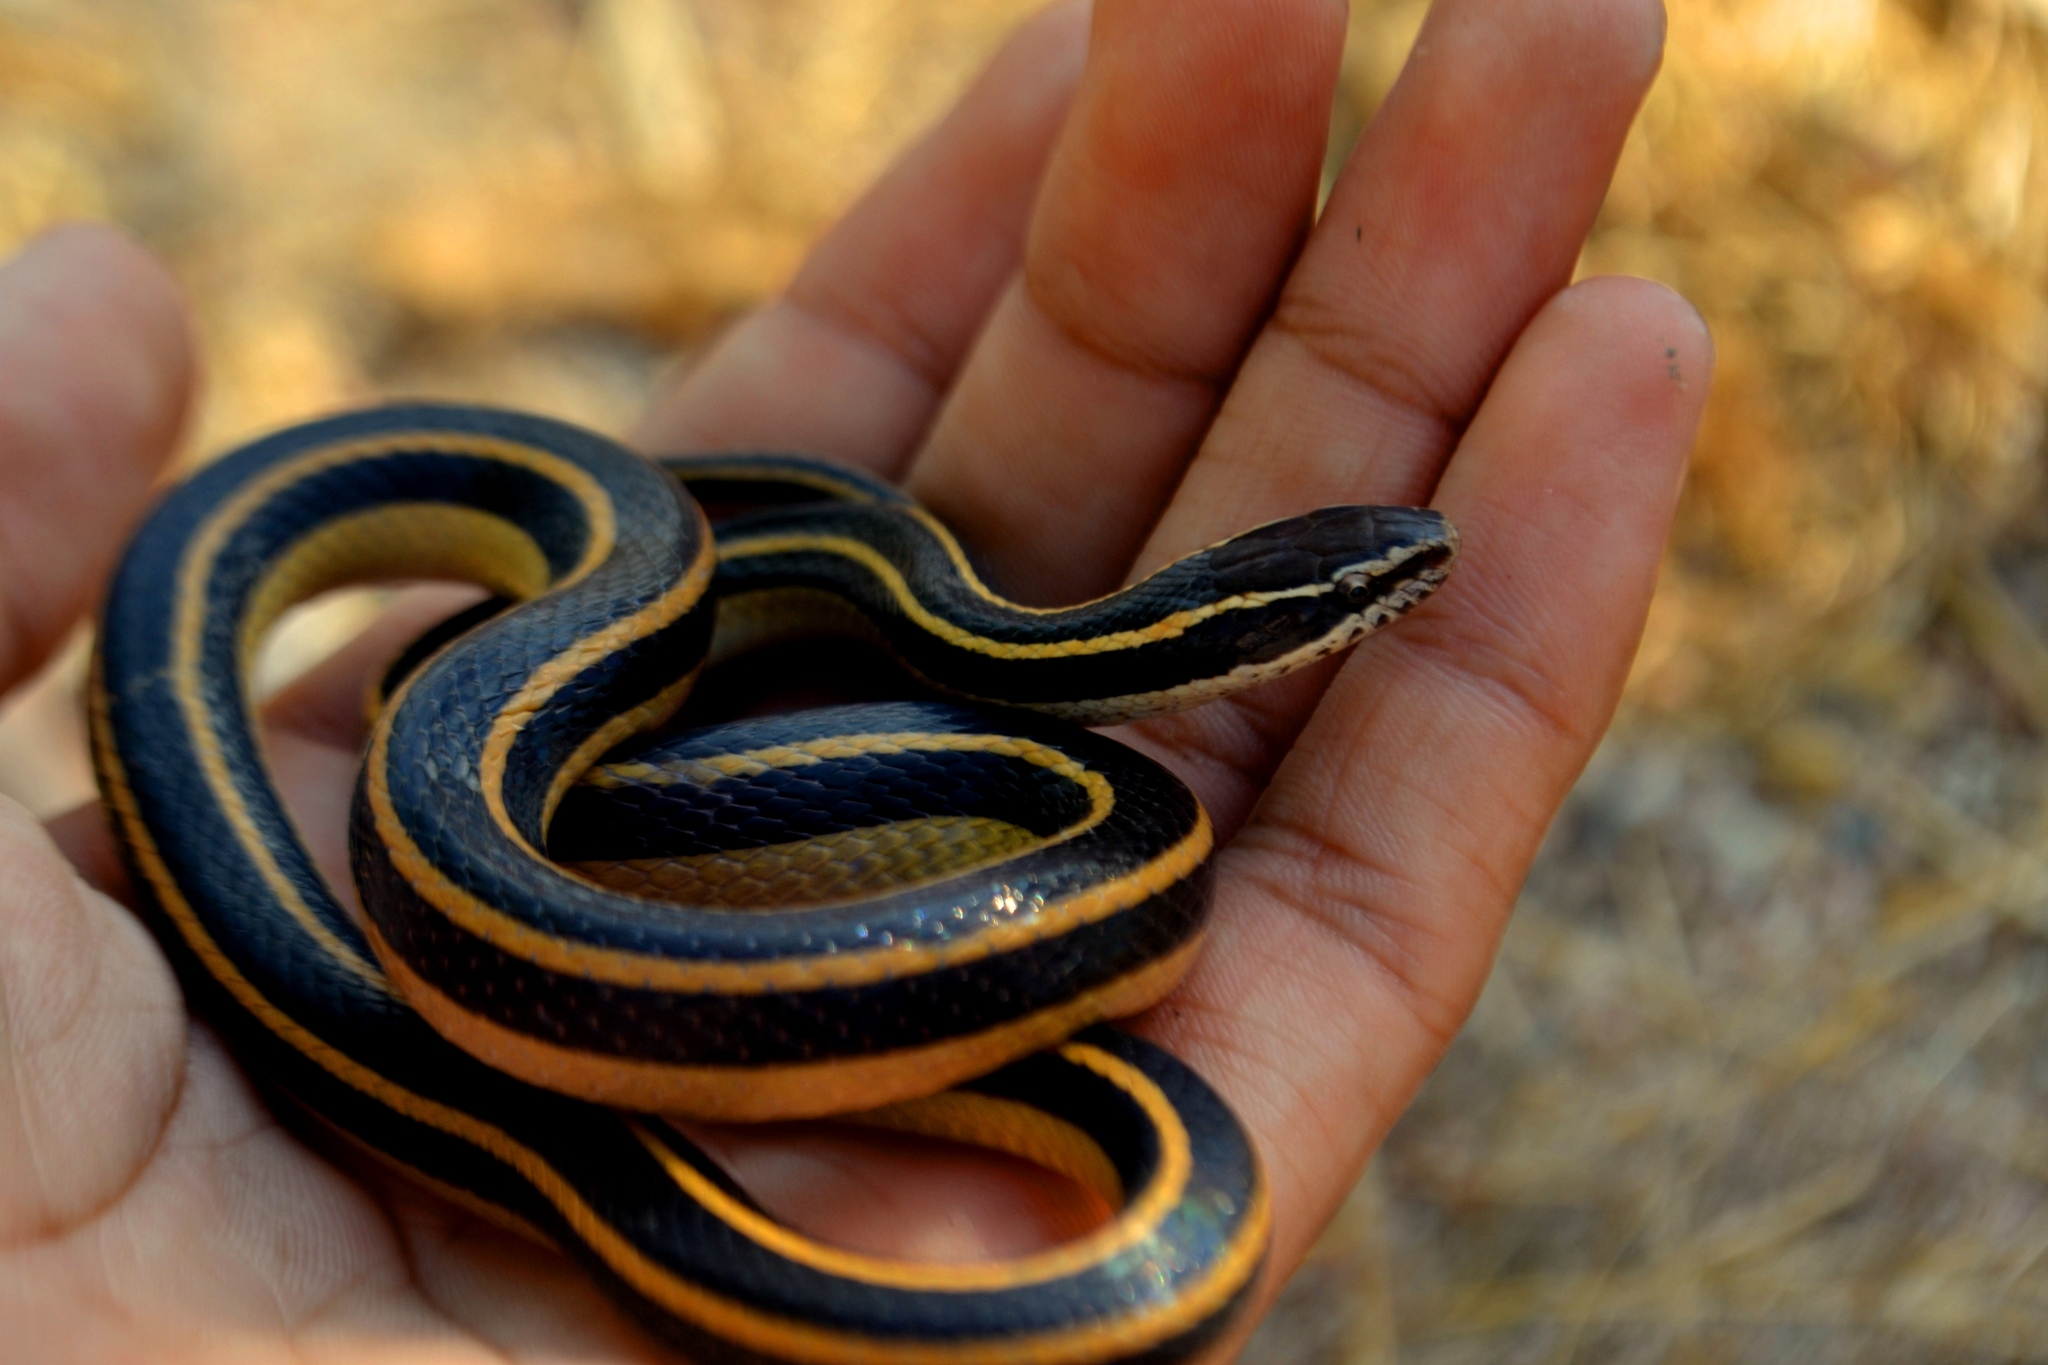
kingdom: Animalia
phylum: Chordata
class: Squamata
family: Colubridae
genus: Coniophanes
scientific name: Coniophanes piceivittis
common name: Cope's black-striped snake
